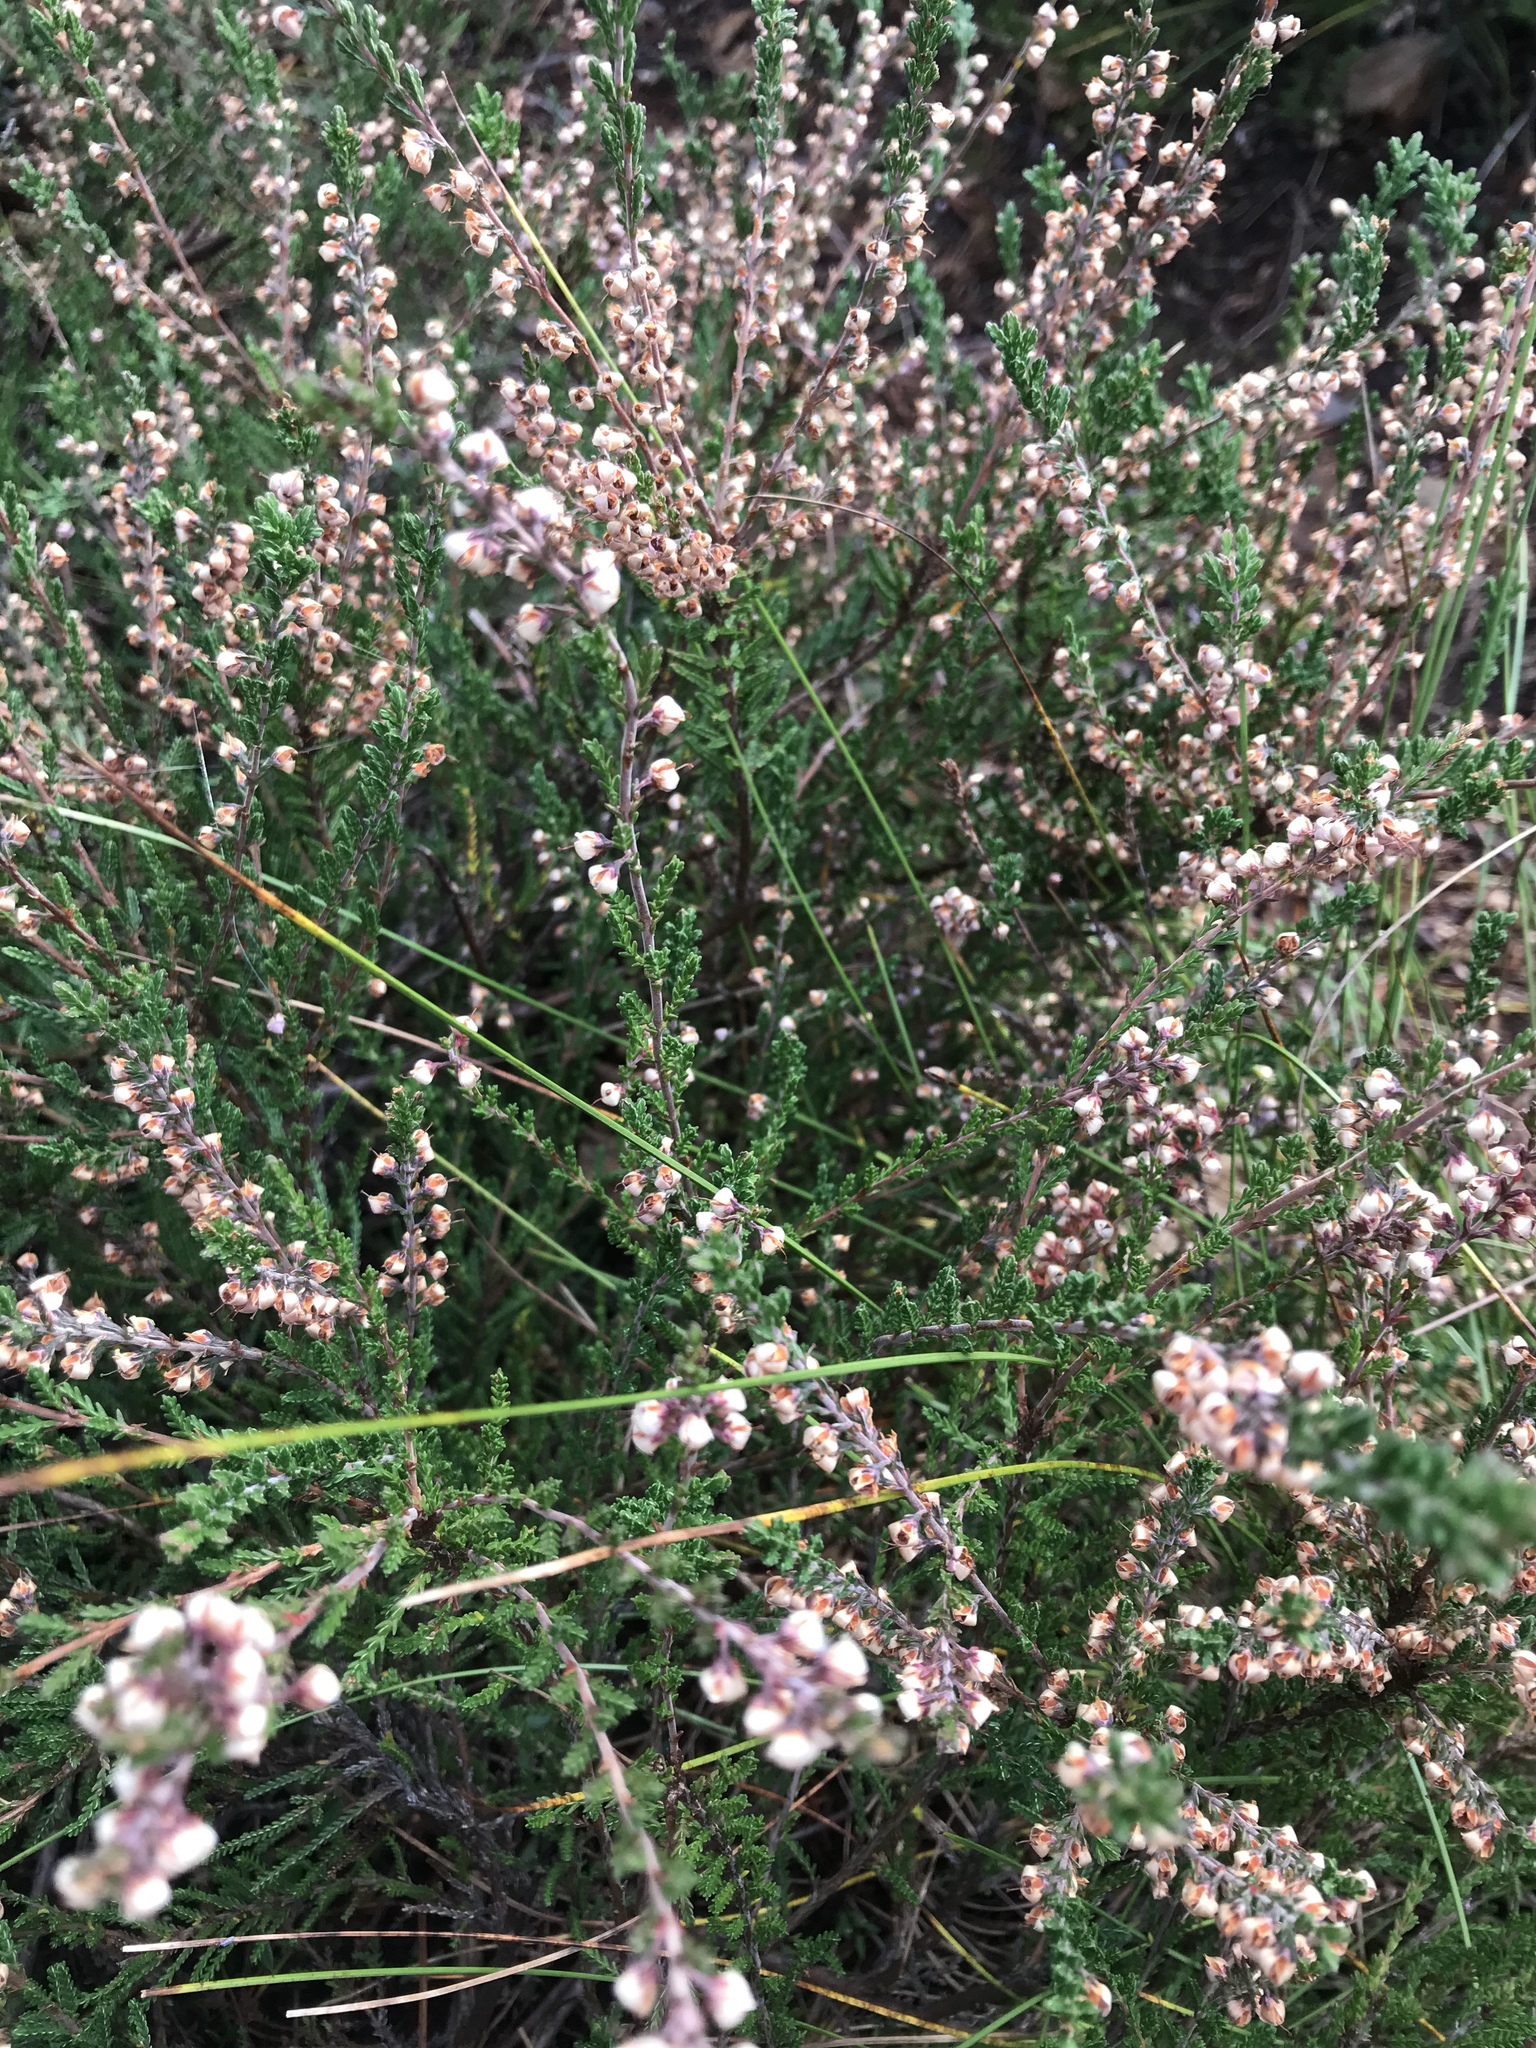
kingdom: Plantae
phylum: Tracheophyta
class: Magnoliopsida
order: Ericales
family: Ericaceae
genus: Calluna
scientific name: Calluna vulgaris
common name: Heather
